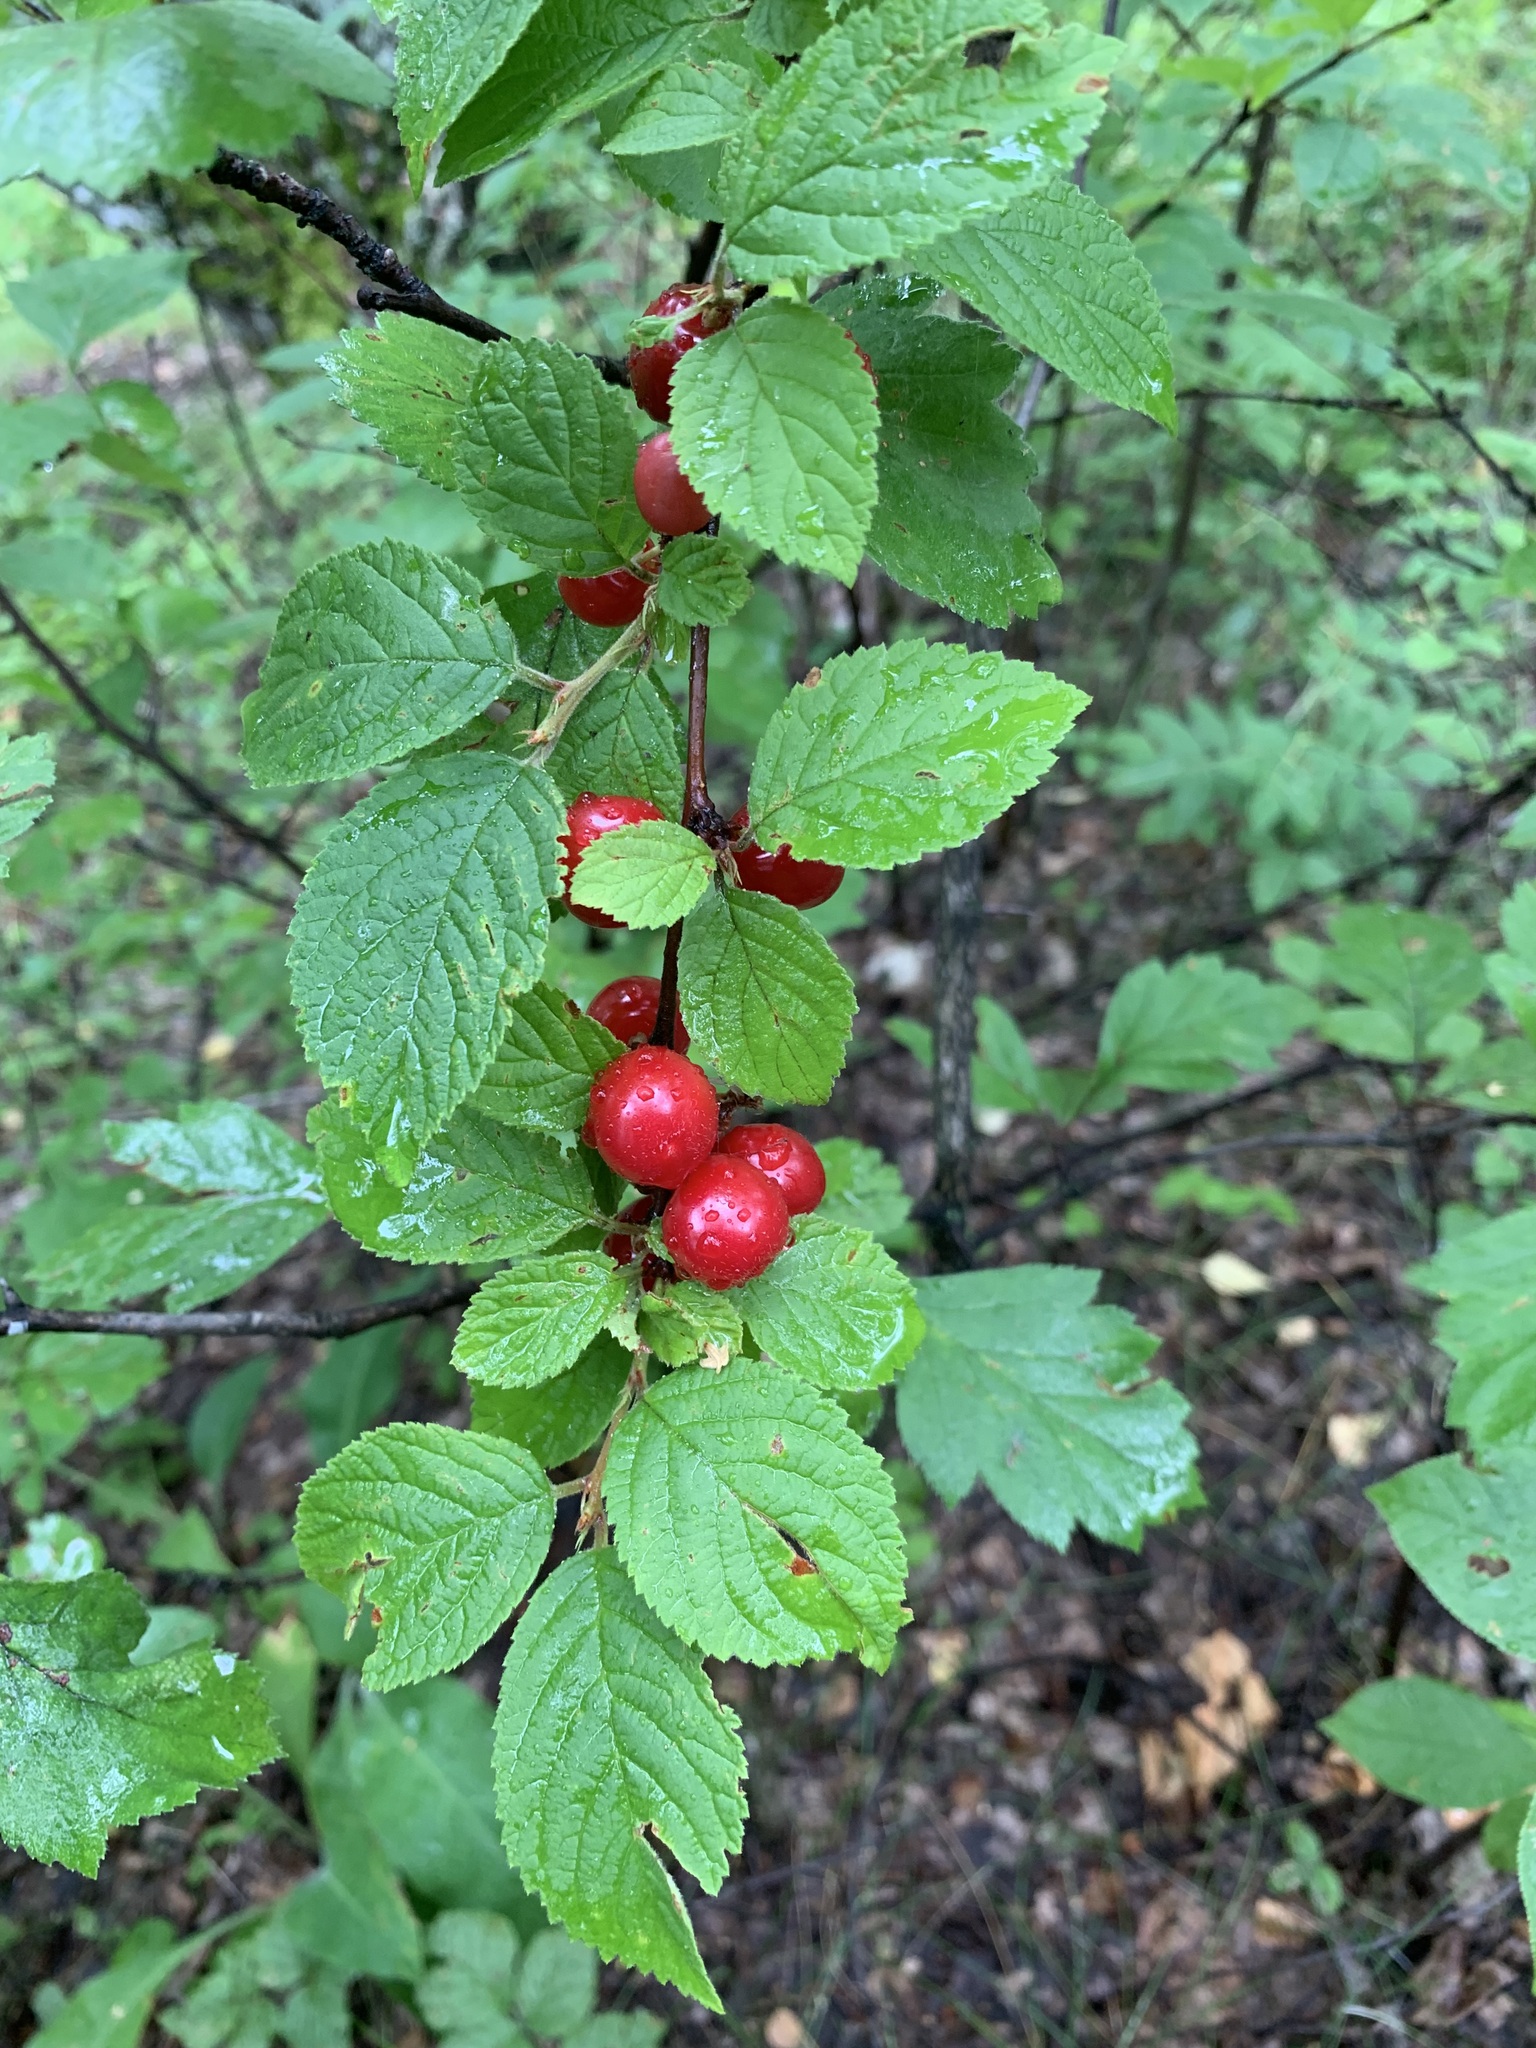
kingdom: Plantae
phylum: Tracheophyta
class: Magnoliopsida
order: Rosales
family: Rosaceae
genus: Prunus
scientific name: Prunus tomentosa
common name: Nanking cherry
